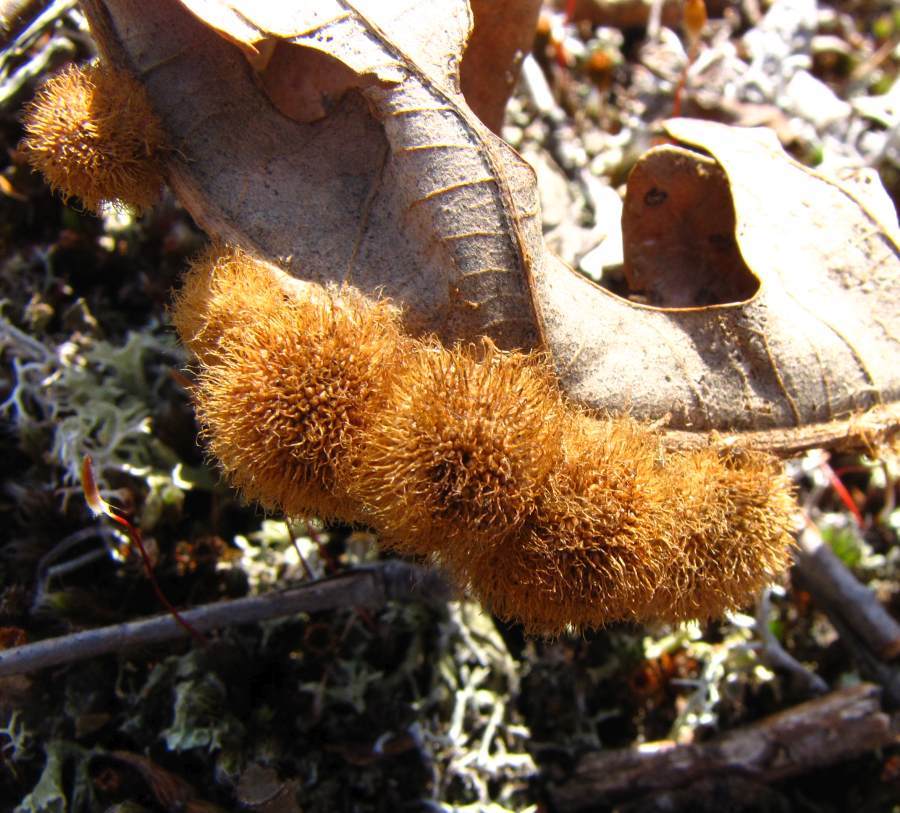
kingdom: Animalia
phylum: Arthropoda
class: Insecta
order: Hymenoptera
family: Cynipidae
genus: Acraspis
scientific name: Acraspis villosa
